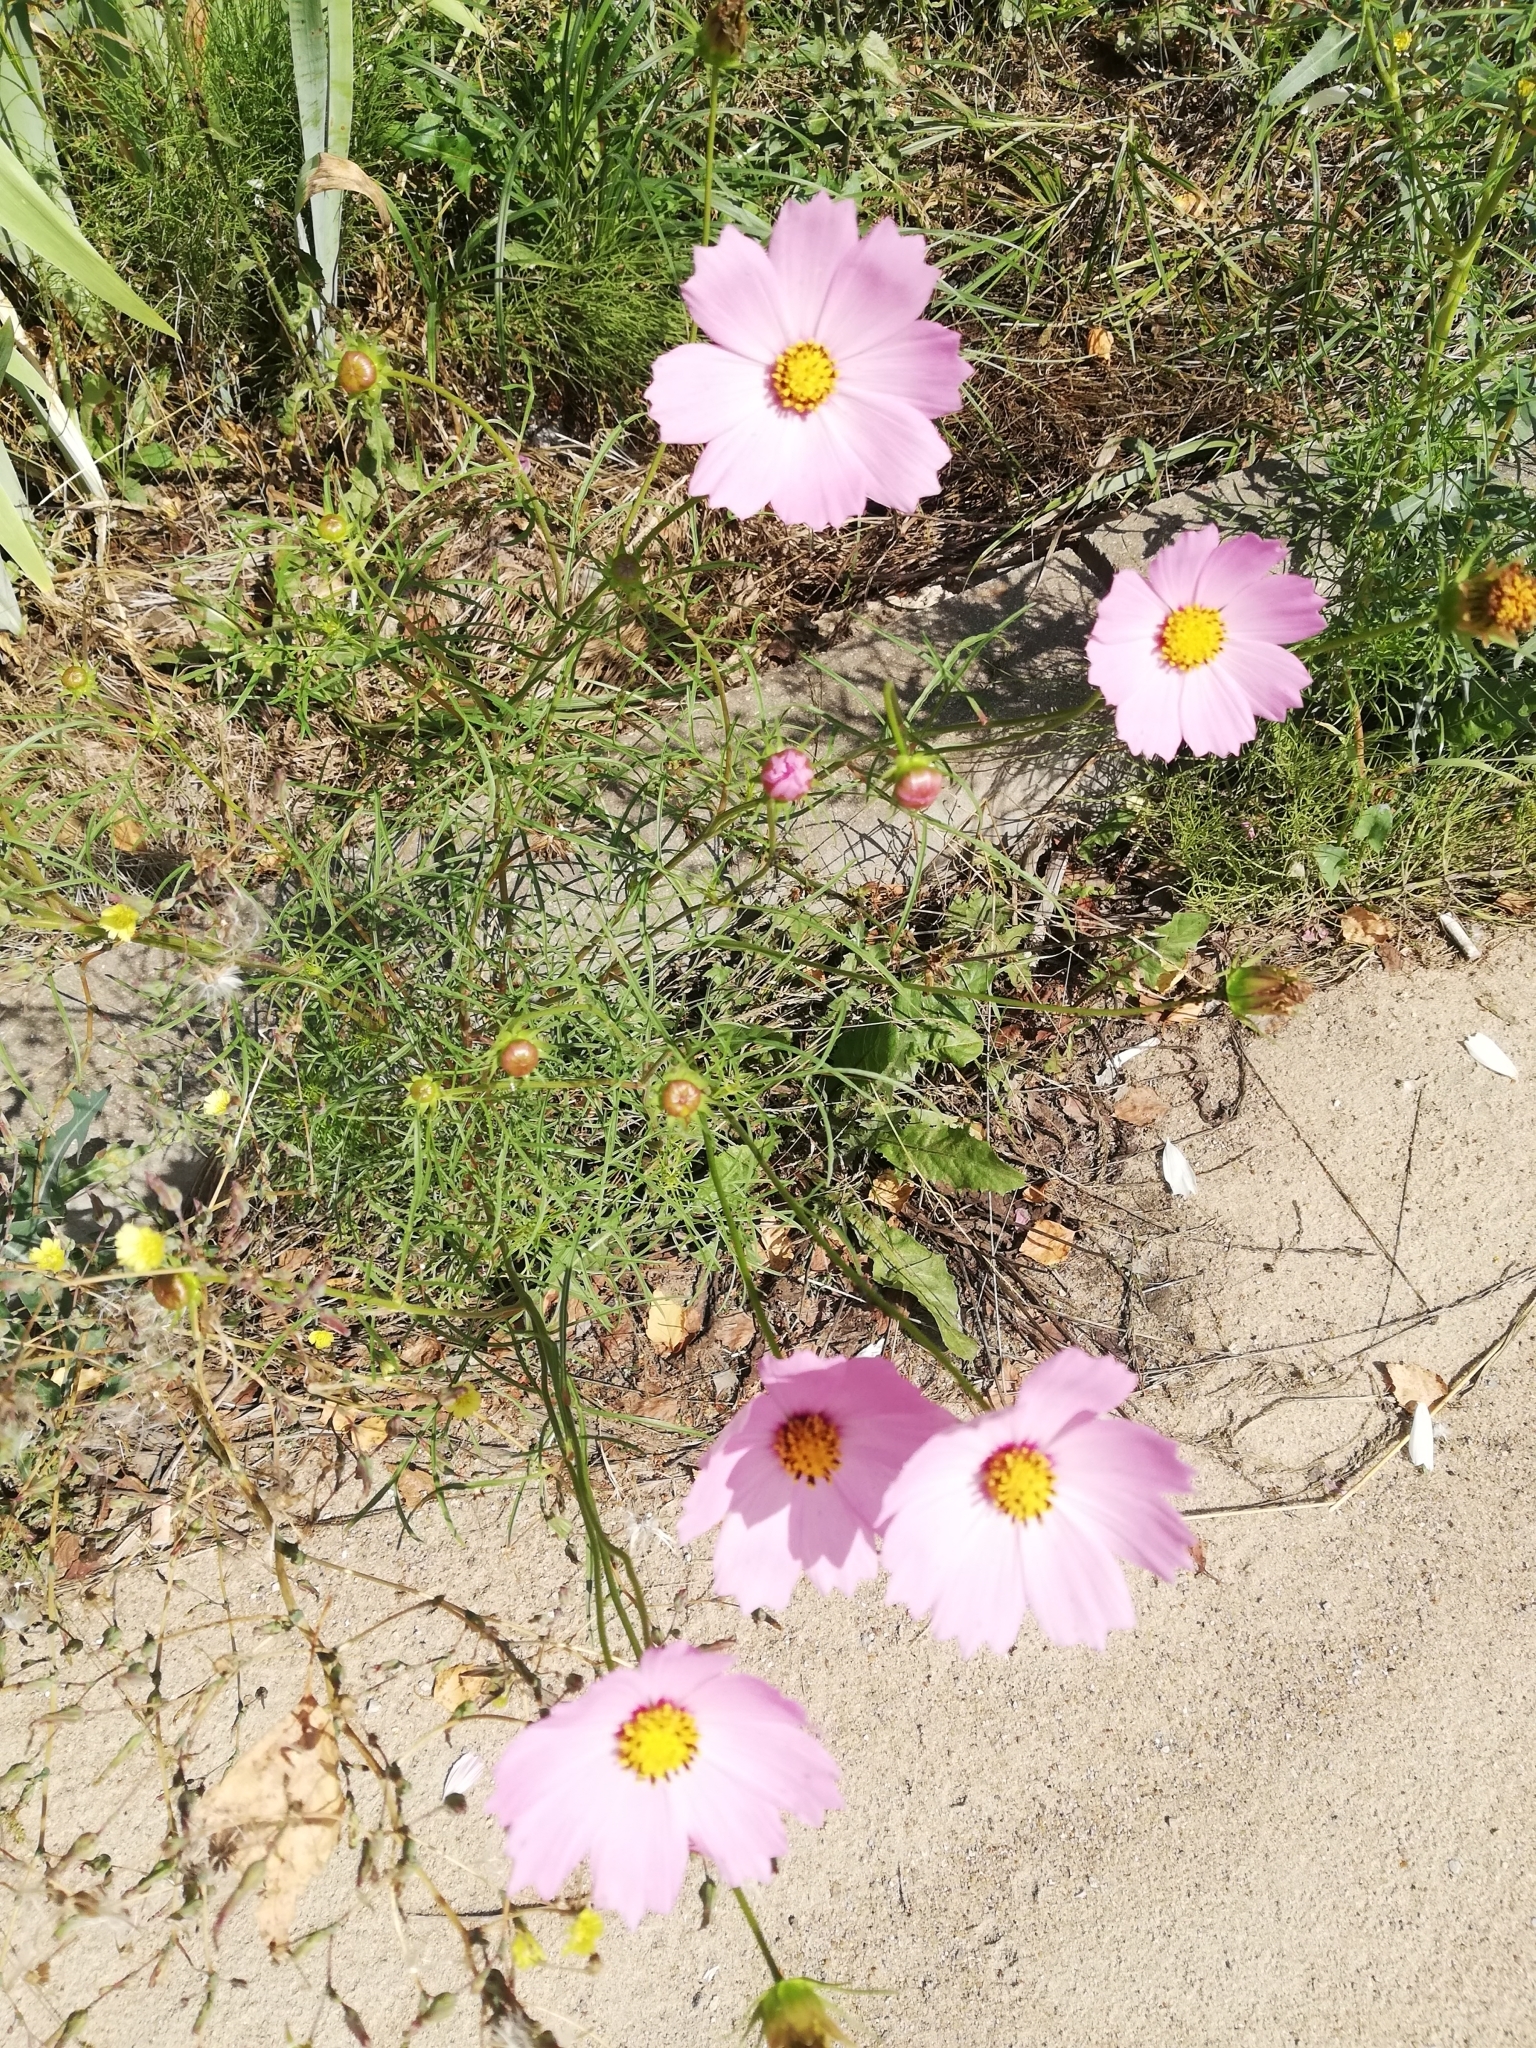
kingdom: Plantae
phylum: Tracheophyta
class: Magnoliopsida
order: Asterales
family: Asteraceae
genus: Cosmos
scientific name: Cosmos bipinnatus
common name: Garden cosmos
